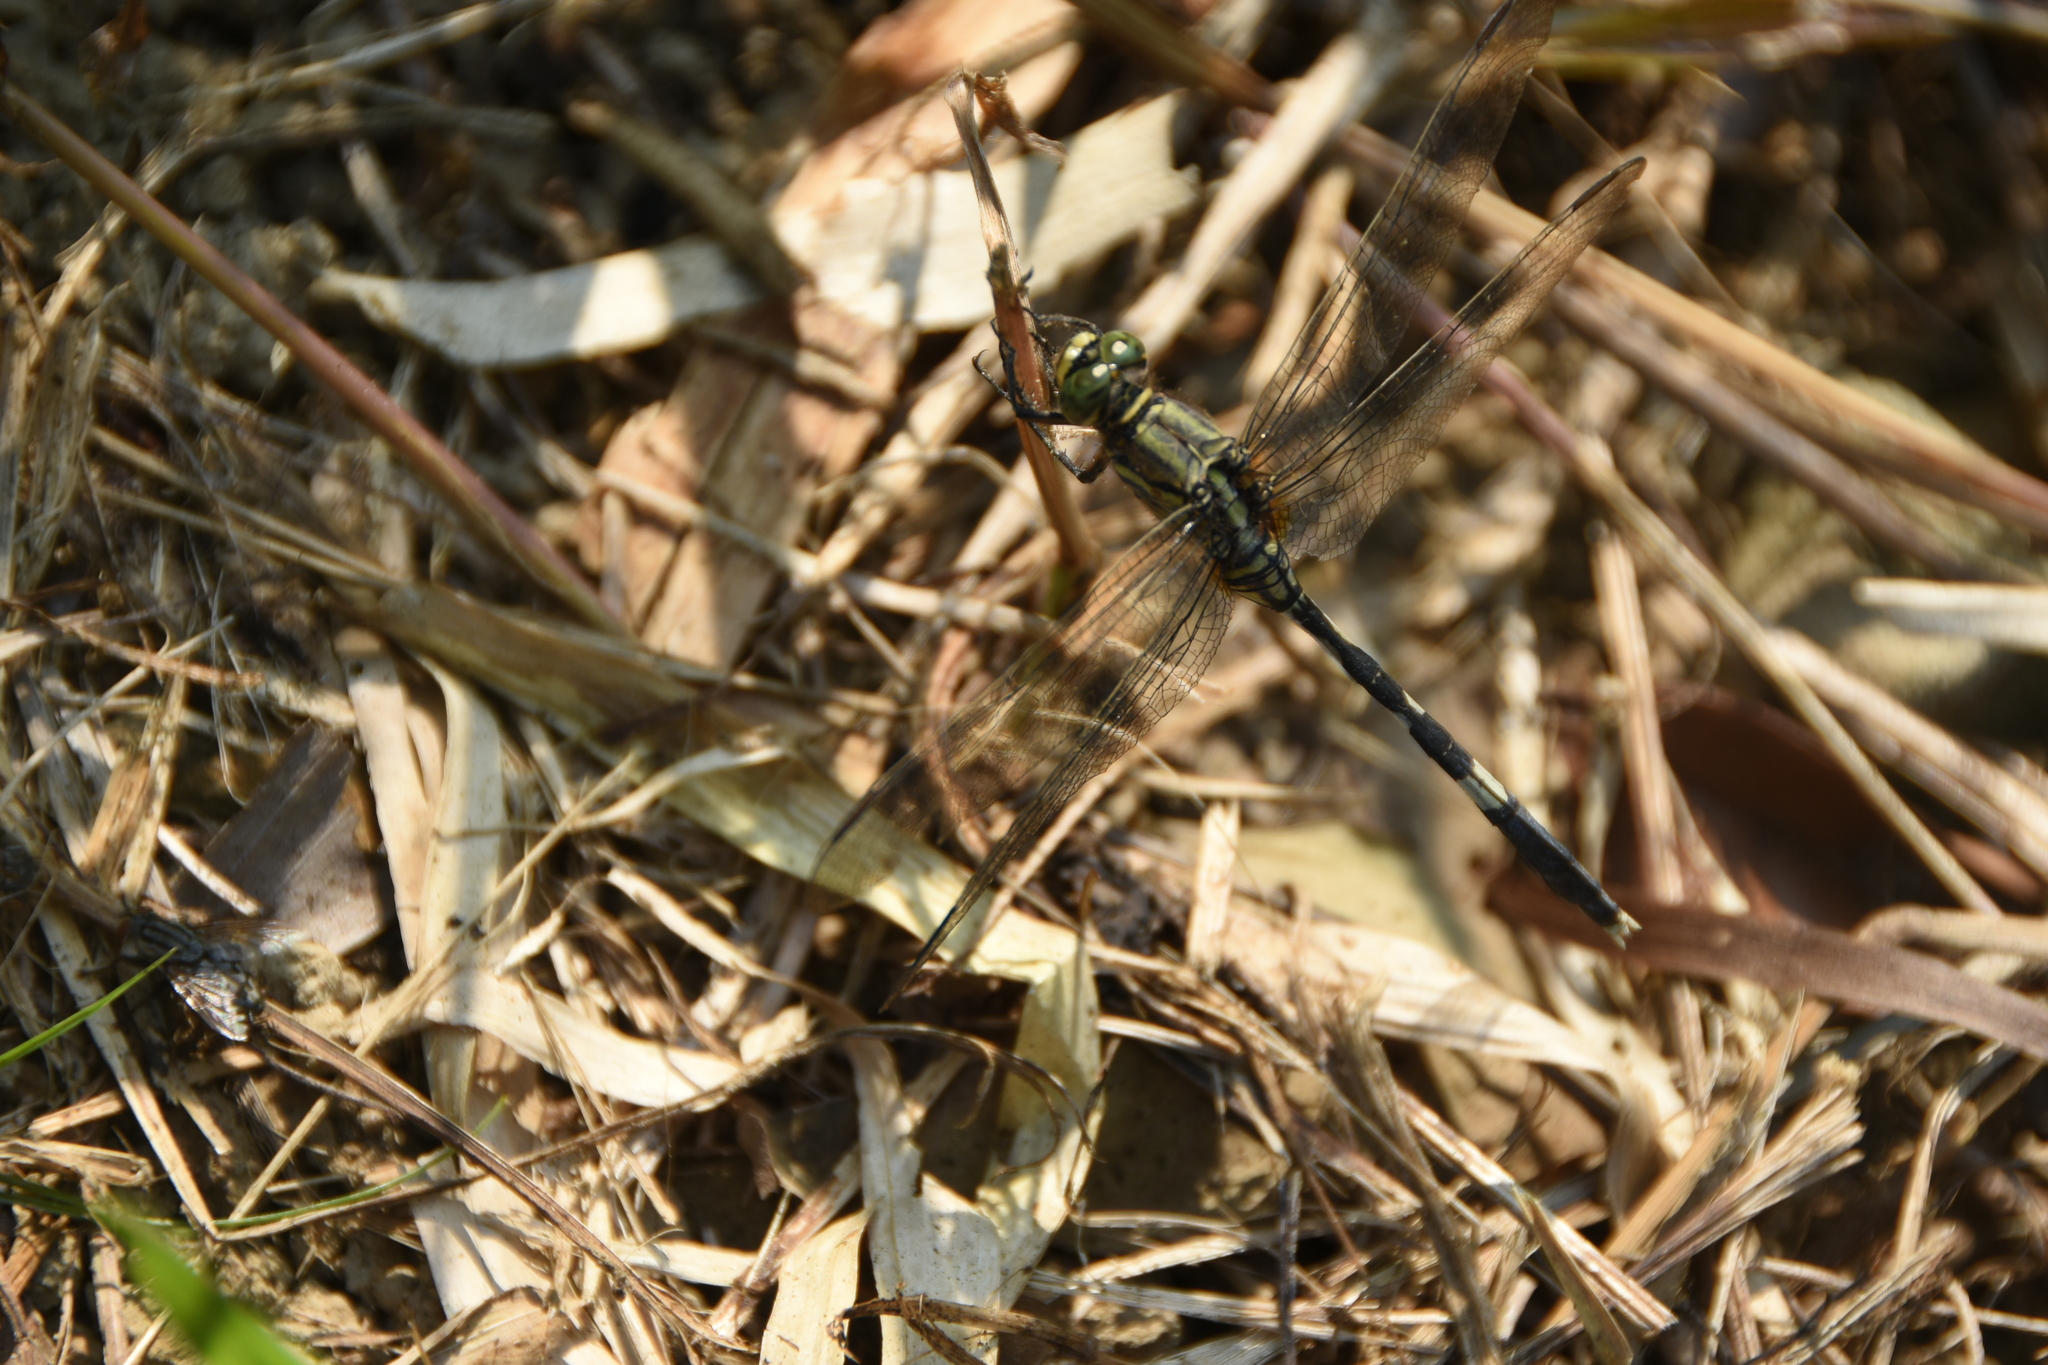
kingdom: Animalia
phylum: Arthropoda
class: Insecta
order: Odonata
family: Libellulidae
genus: Orthetrum
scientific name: Orthetrum sabina
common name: Slender skimmer
